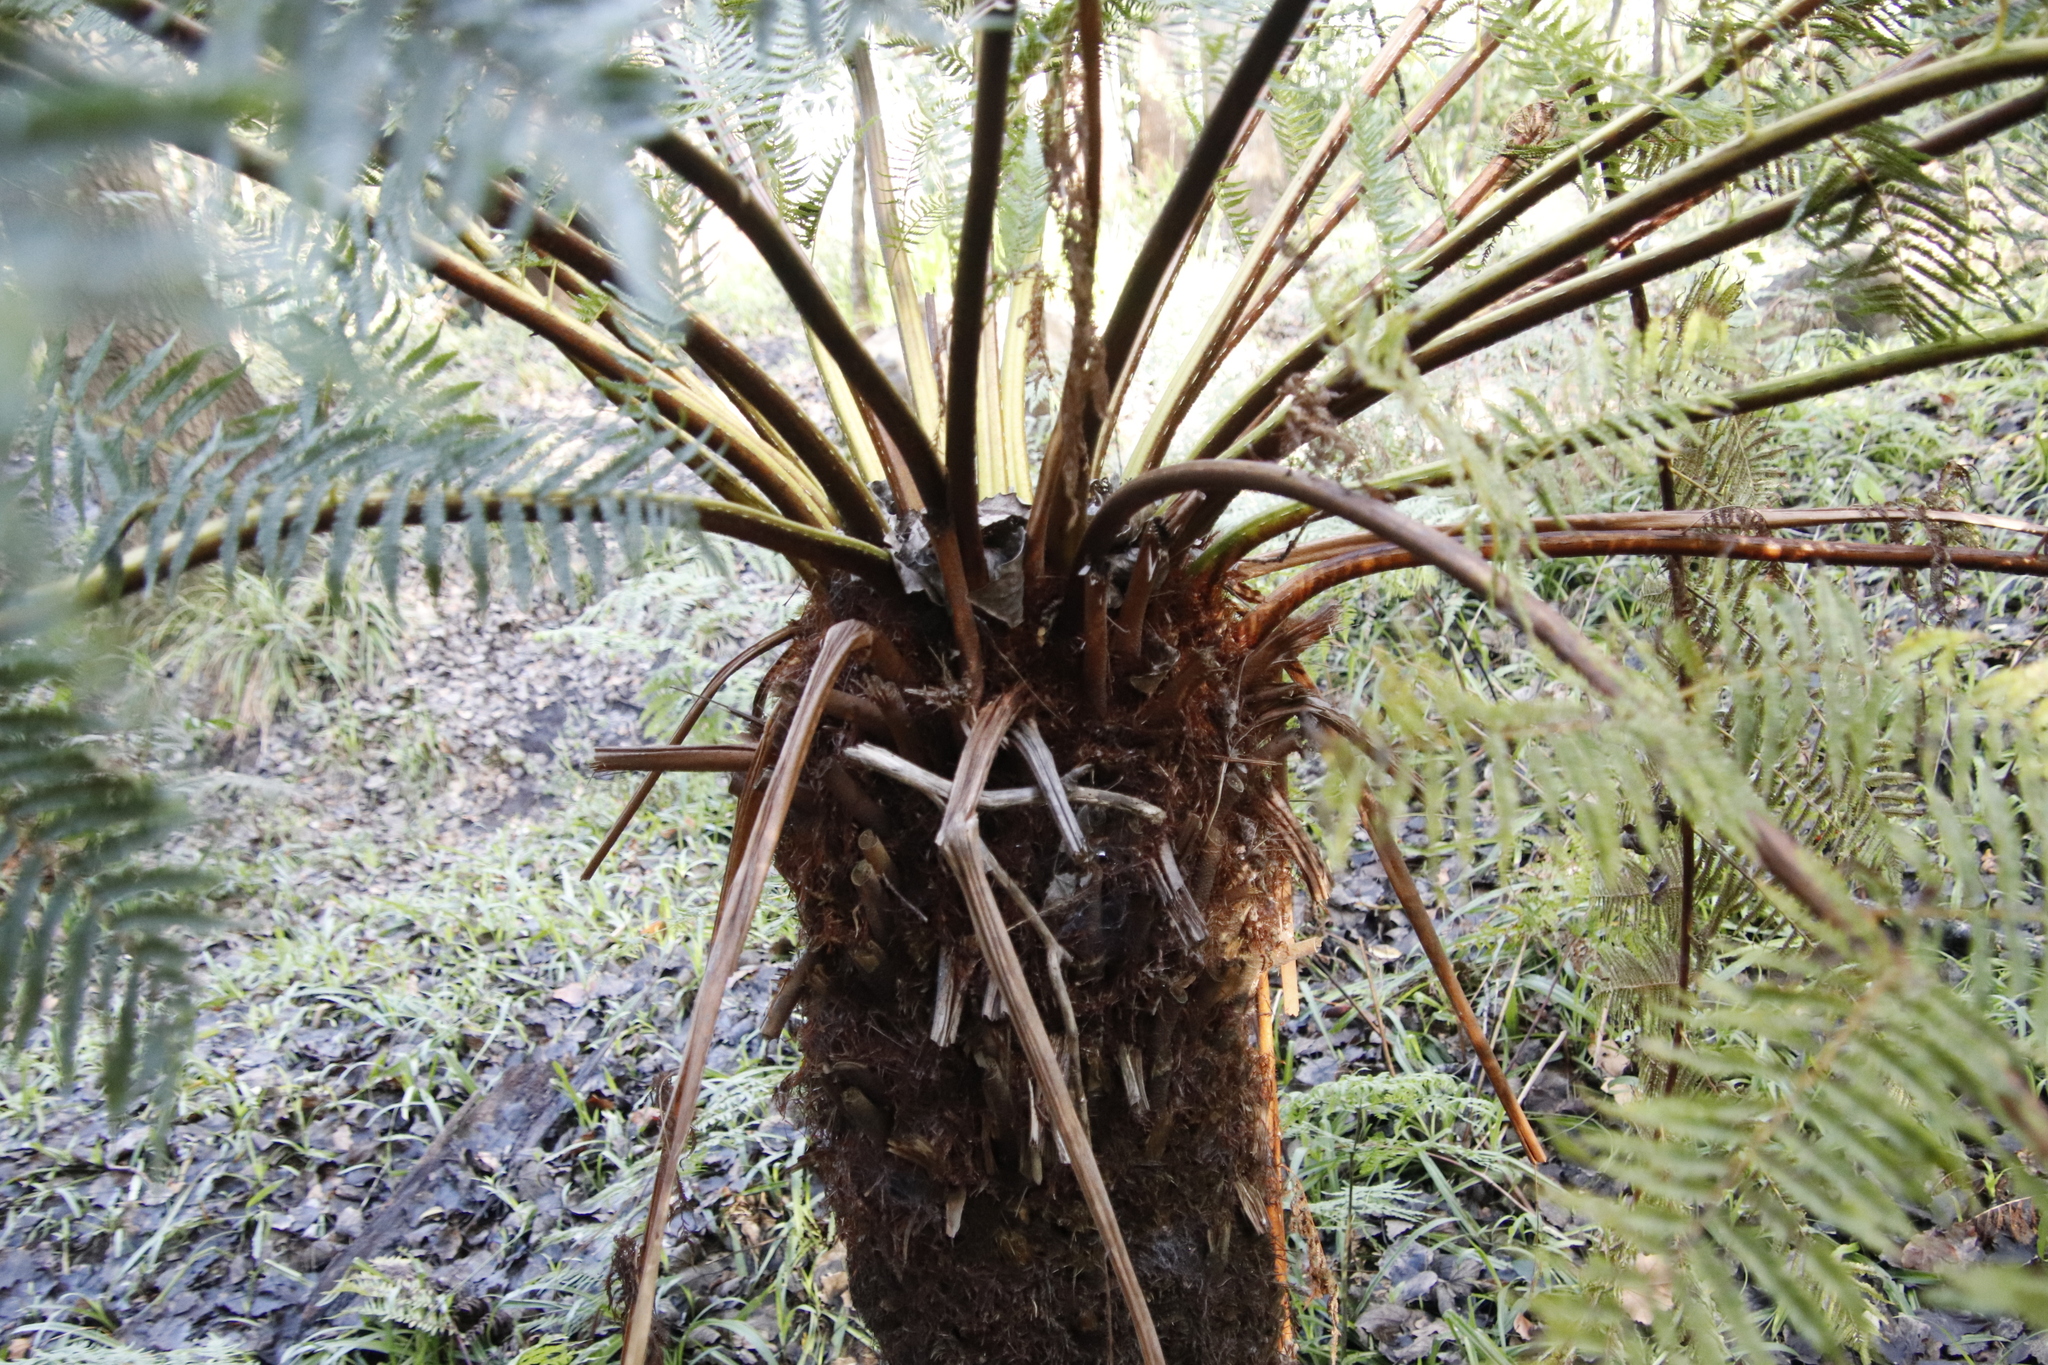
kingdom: Plantae
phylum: Tracheophyta
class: Polypodiopsida
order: Cyatheales
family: Cyatheaceae
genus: Alsophila
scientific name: Alsophila dregei
